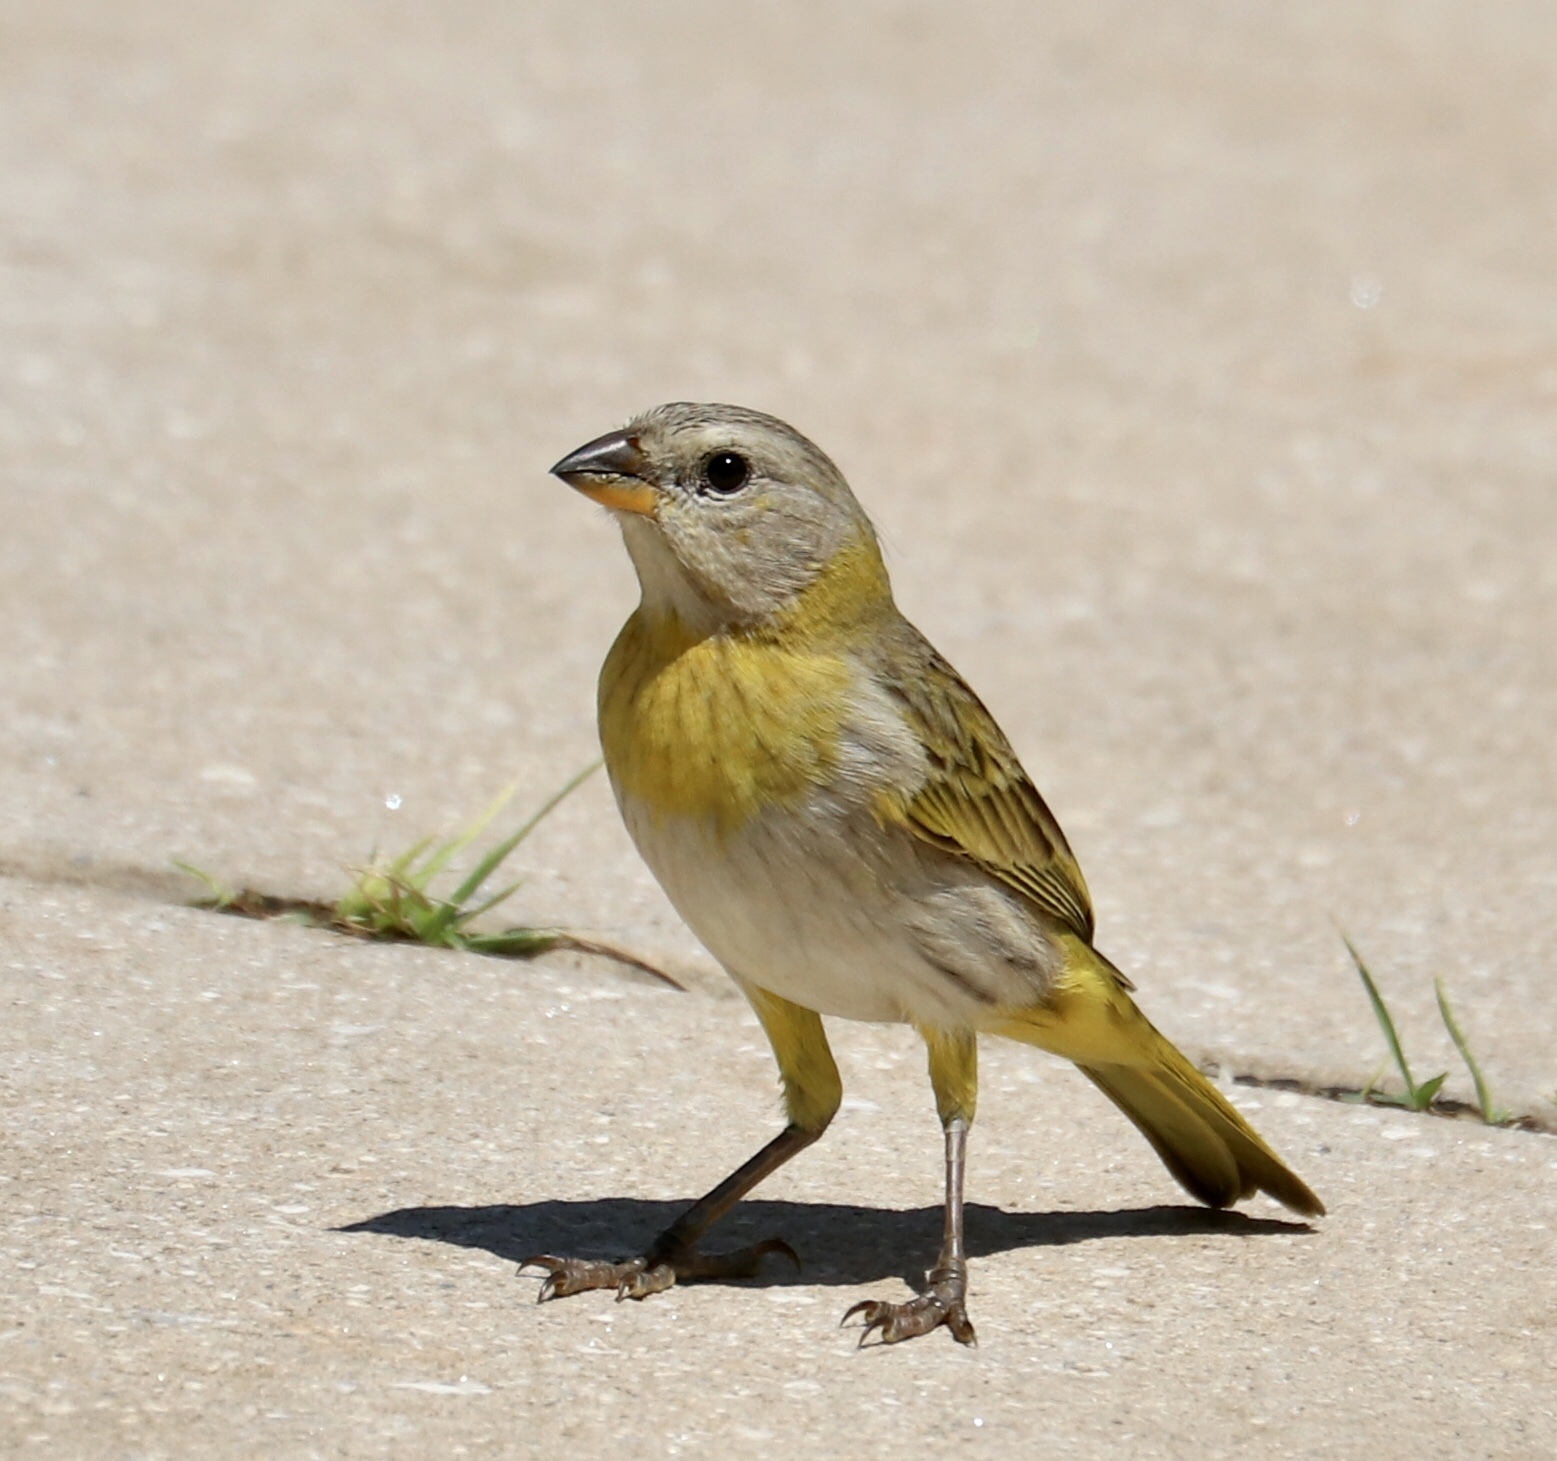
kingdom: Animalia
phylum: Chordata
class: Aves
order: Passeriformes
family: Thraupidae
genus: Sicalis
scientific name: Sicalis flaveola
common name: Saffron finch
